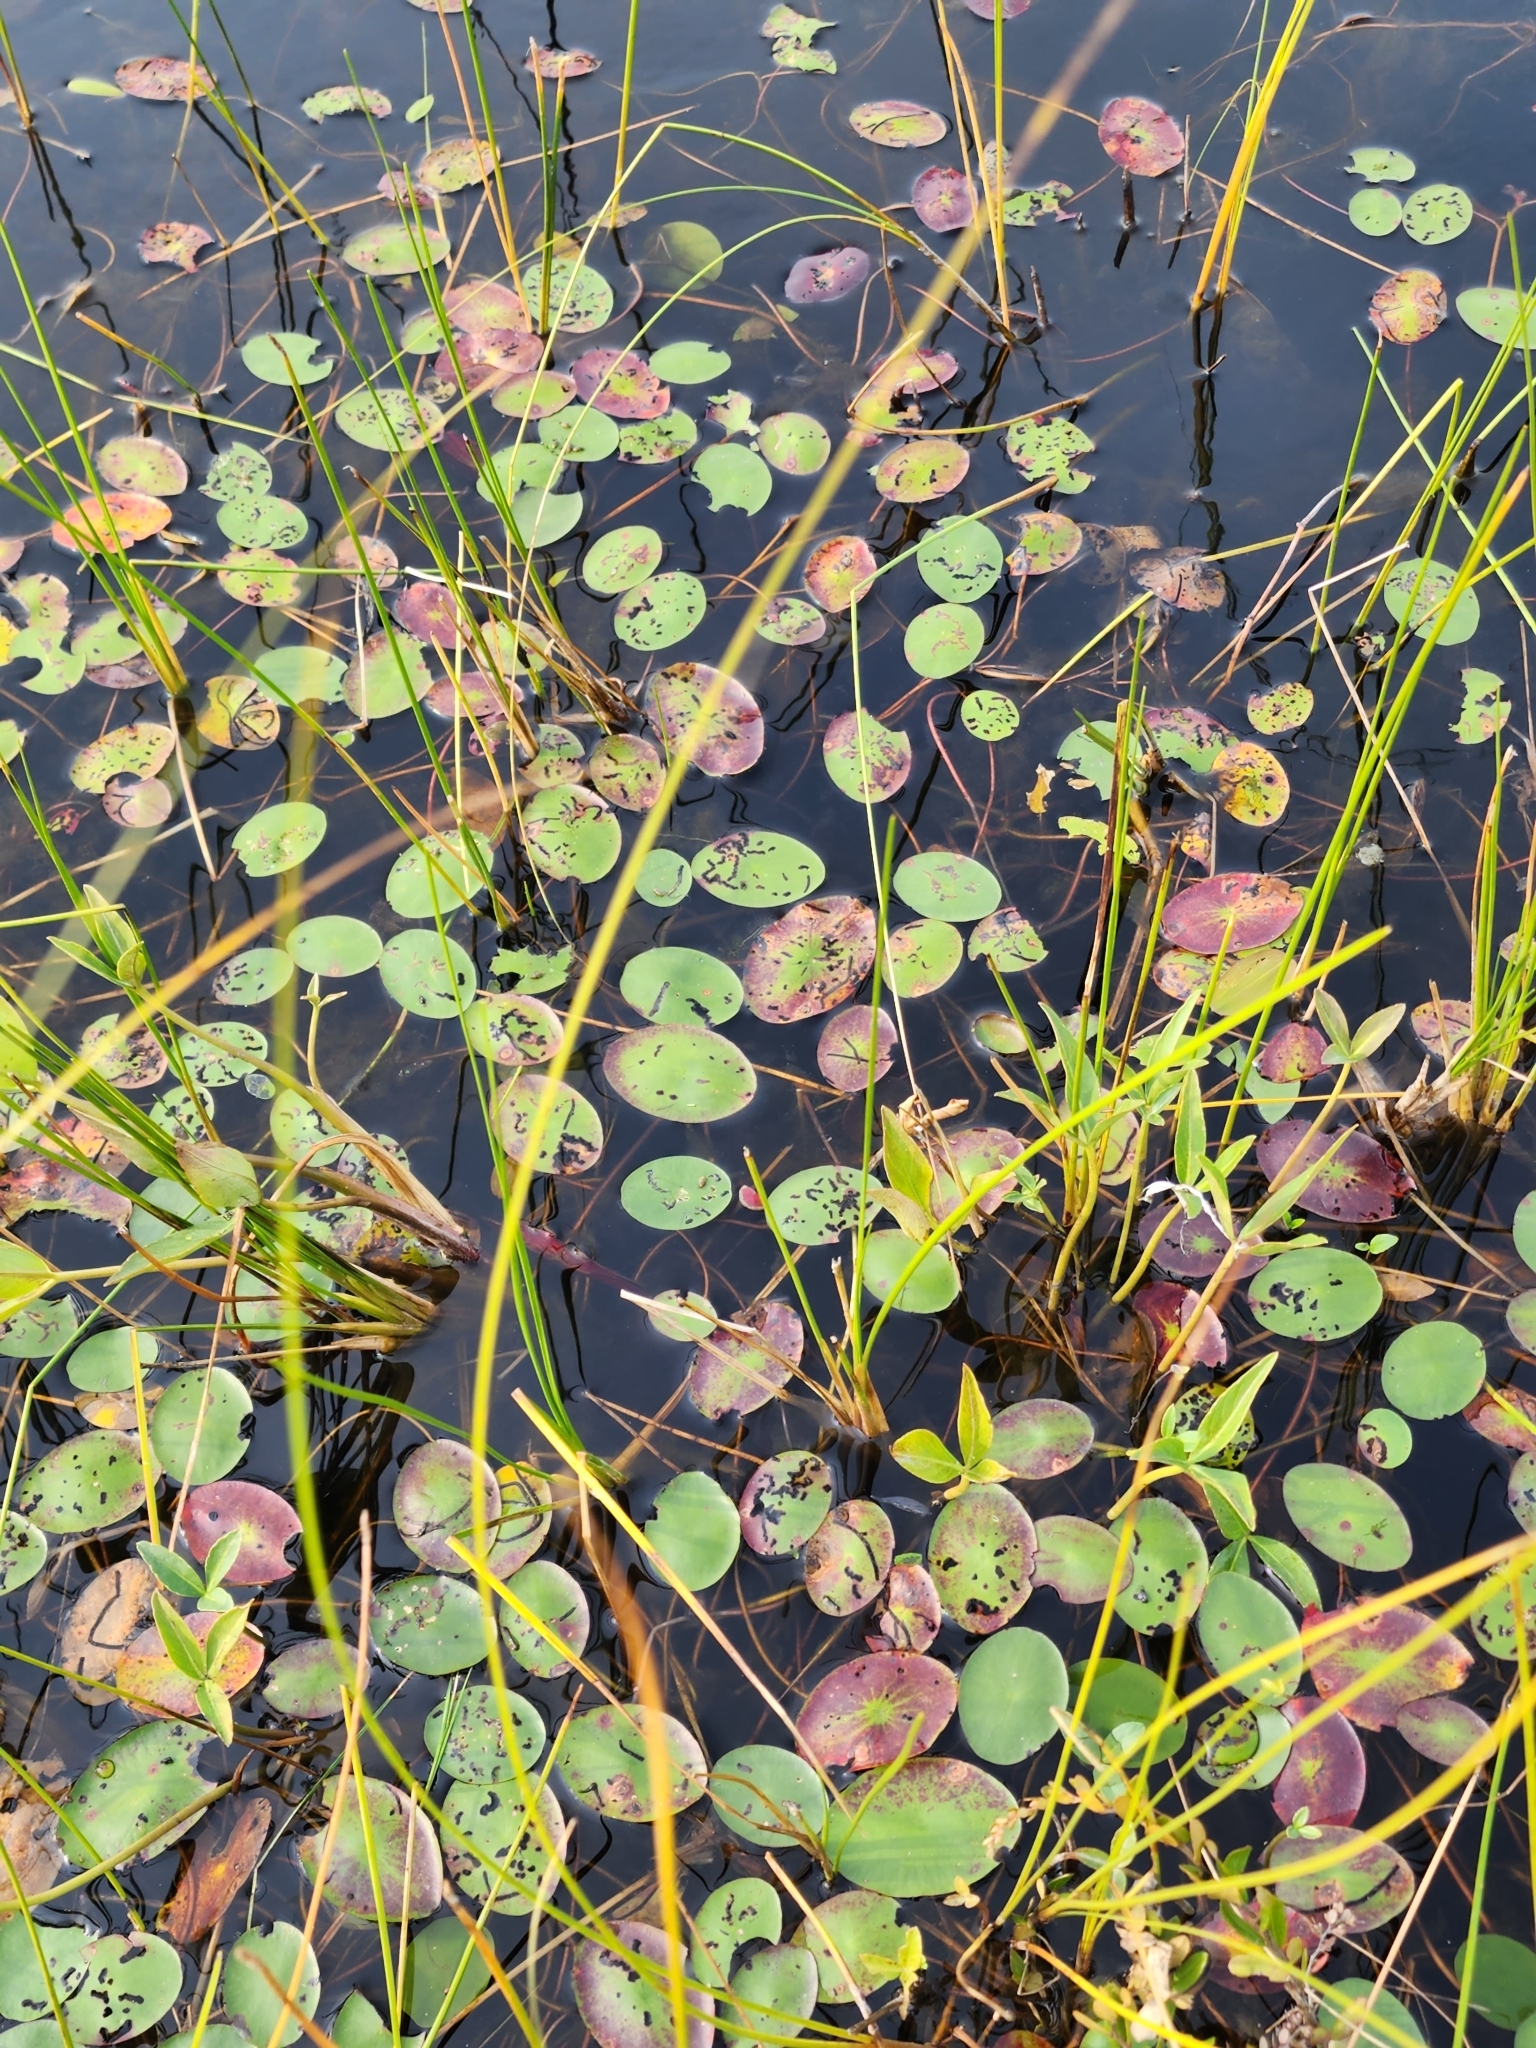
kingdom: Plantae
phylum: Tracheophyta
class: Magnoliopsida
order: Nymphaeales
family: Cabombaceae
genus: Brasenia
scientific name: Brasenia schreberi
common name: Water-shield
